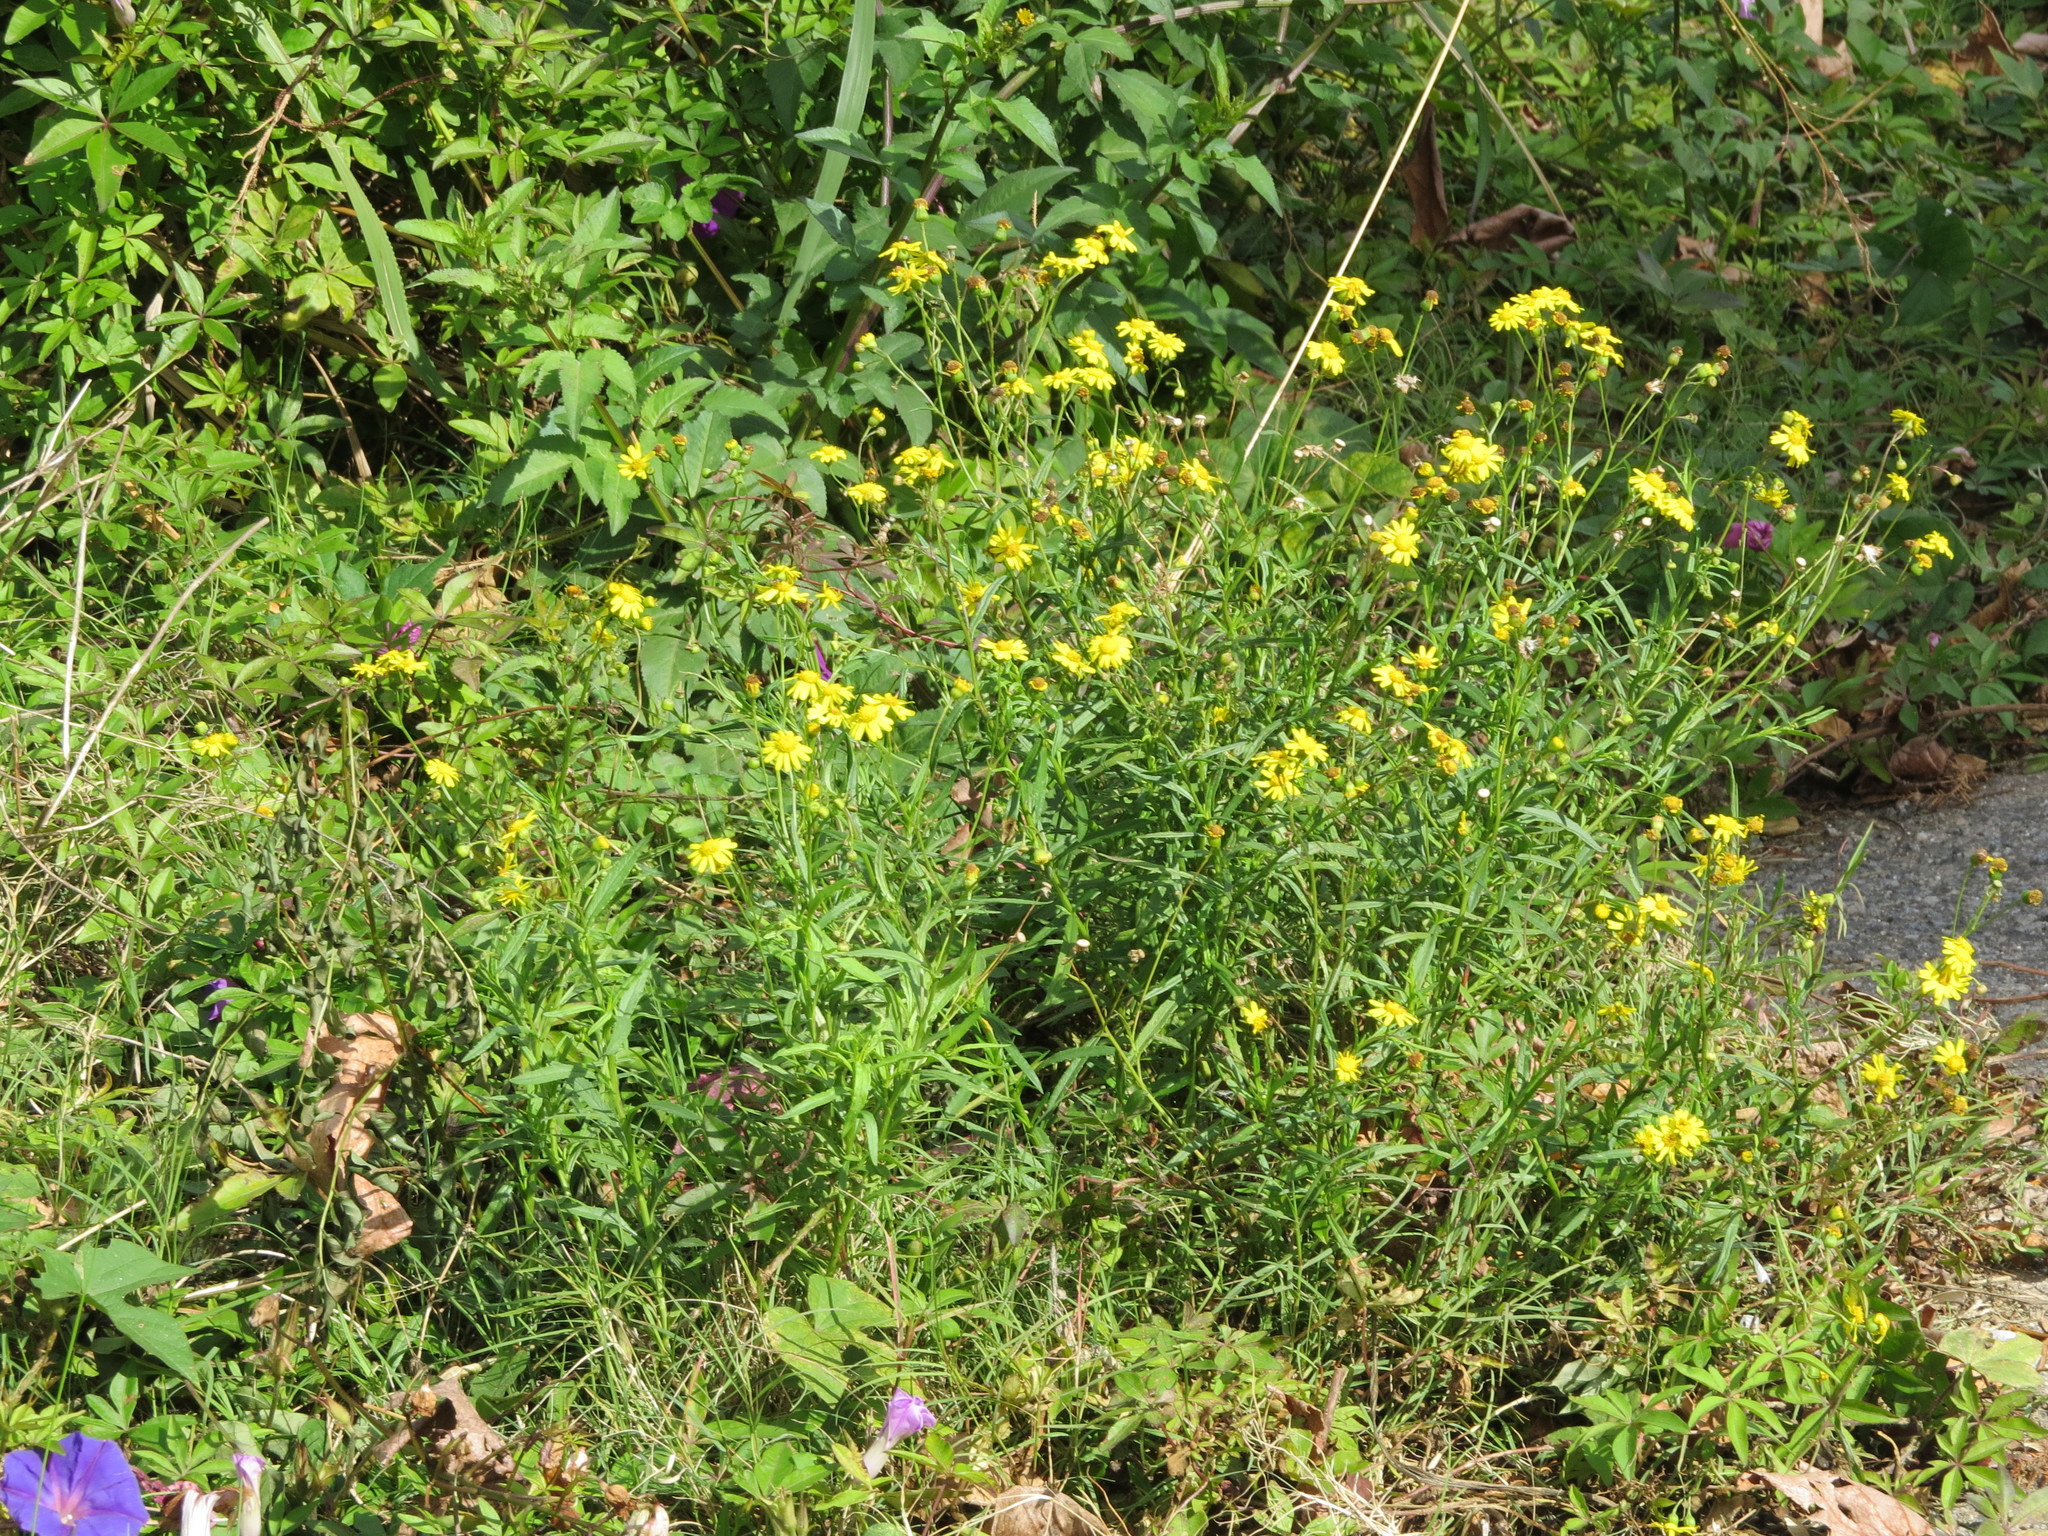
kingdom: Plantae
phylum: Tracheophyta
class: Magnoliopsida
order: Asterales
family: Asteraceae
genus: Senecio
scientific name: Senecio madagascariensis
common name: Madagascar ragwort
